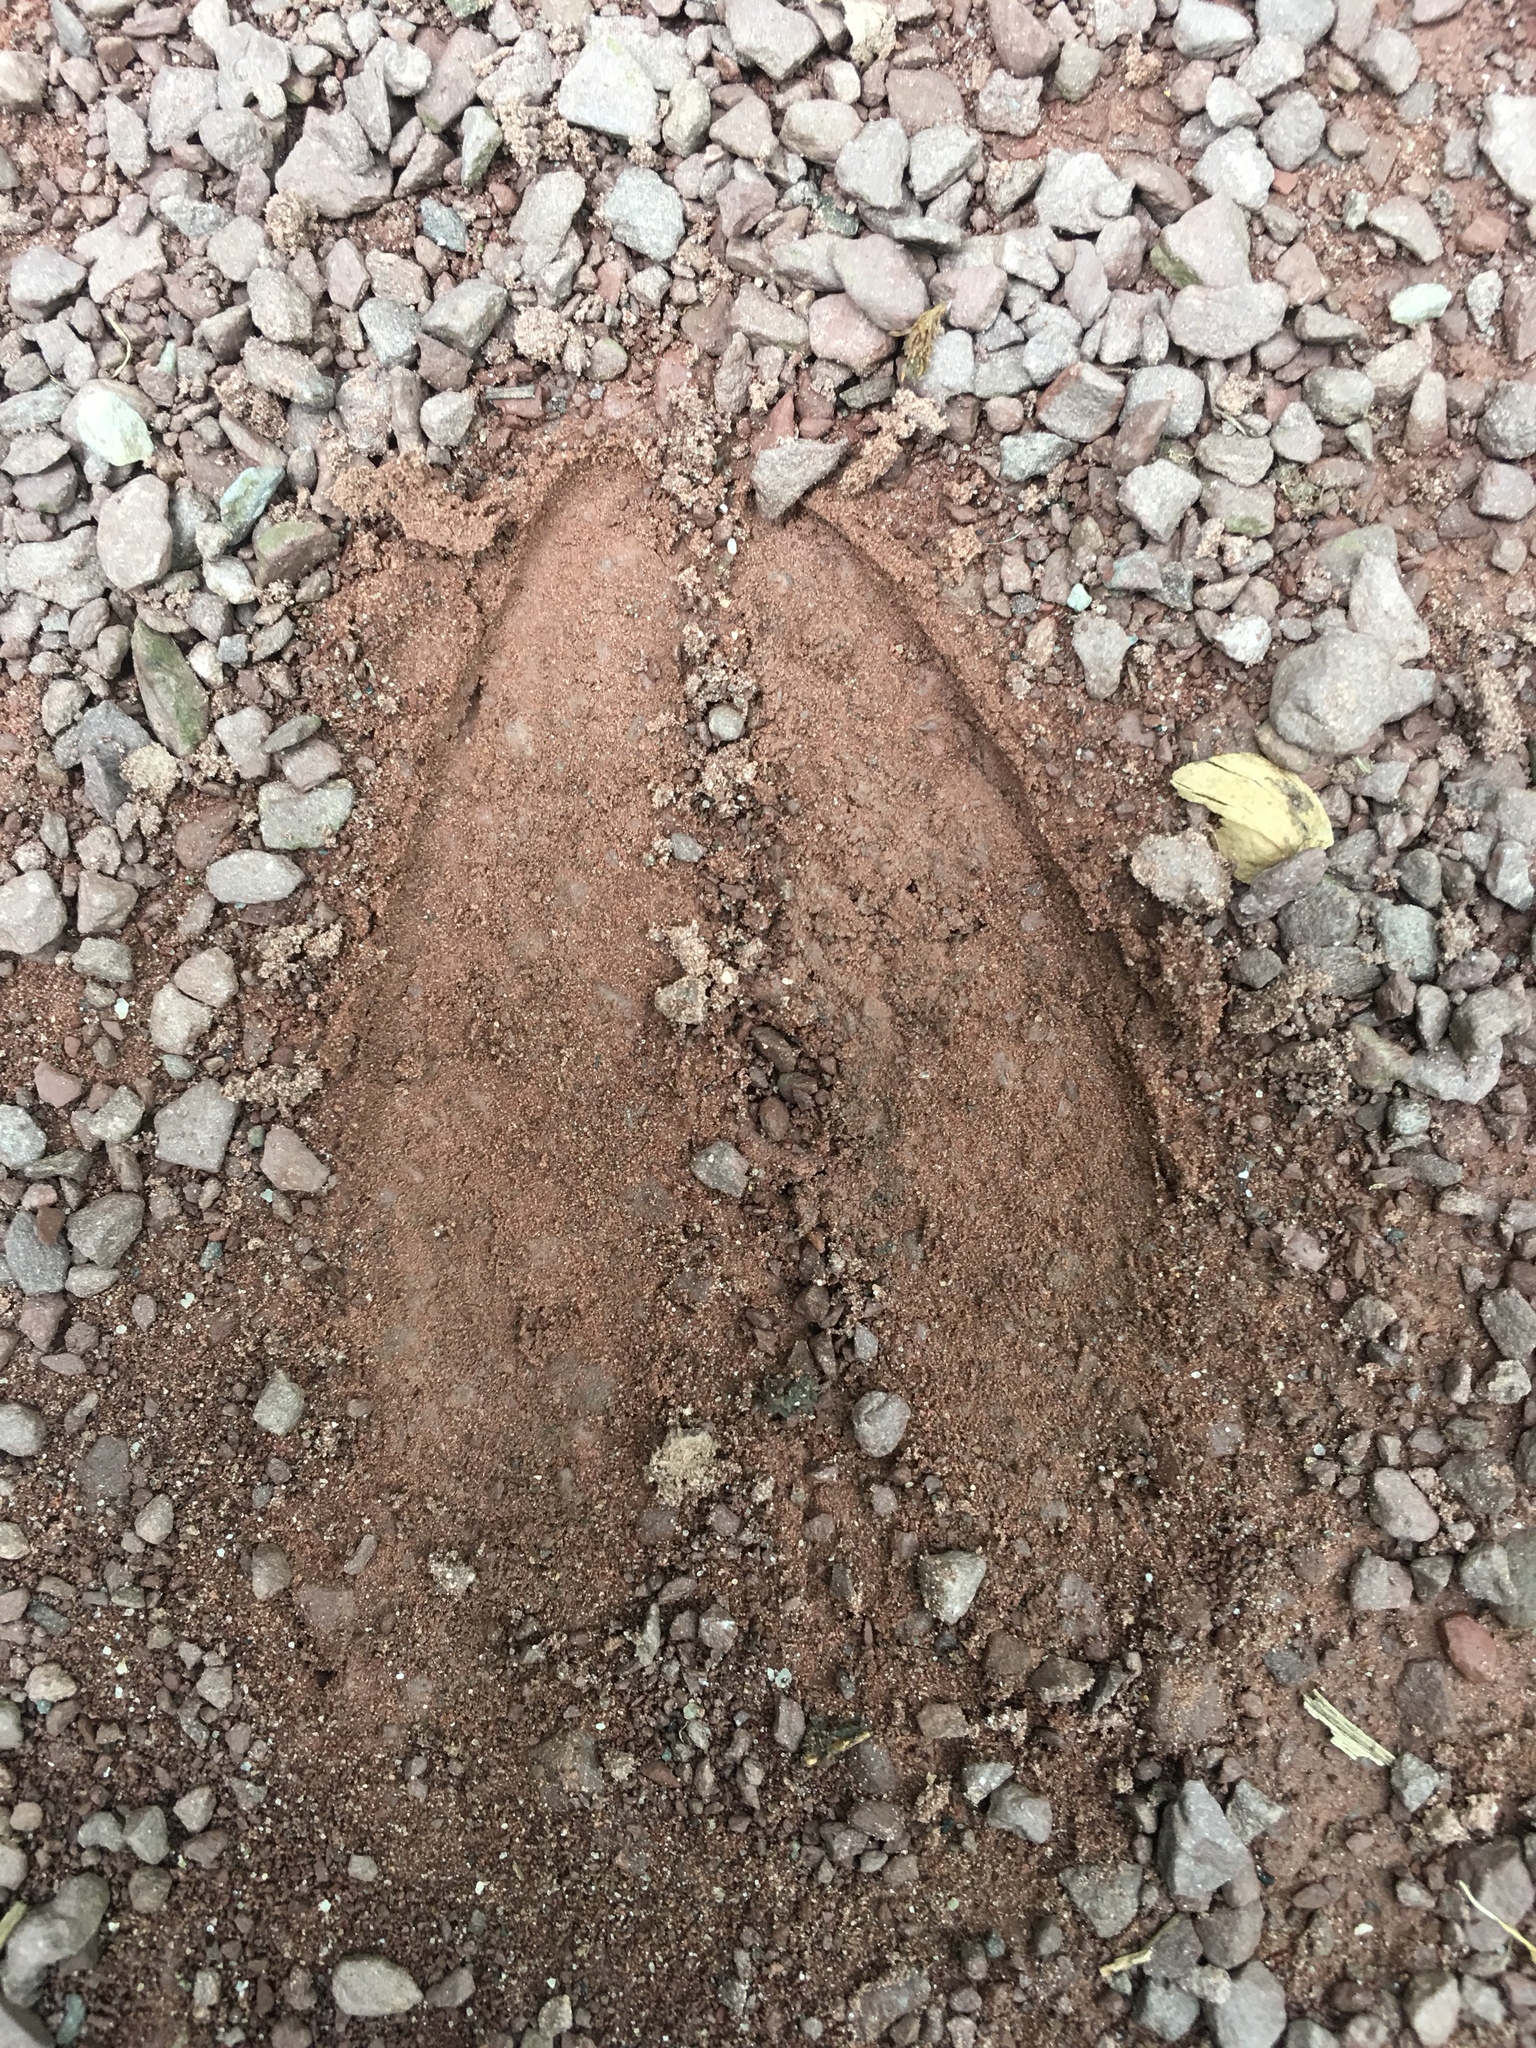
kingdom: Animalia
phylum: Chordata
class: Mammalia
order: Artiodactyla
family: Cervidae
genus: Odocoileus
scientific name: Odocoileus virginianus
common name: White-tailed deer
